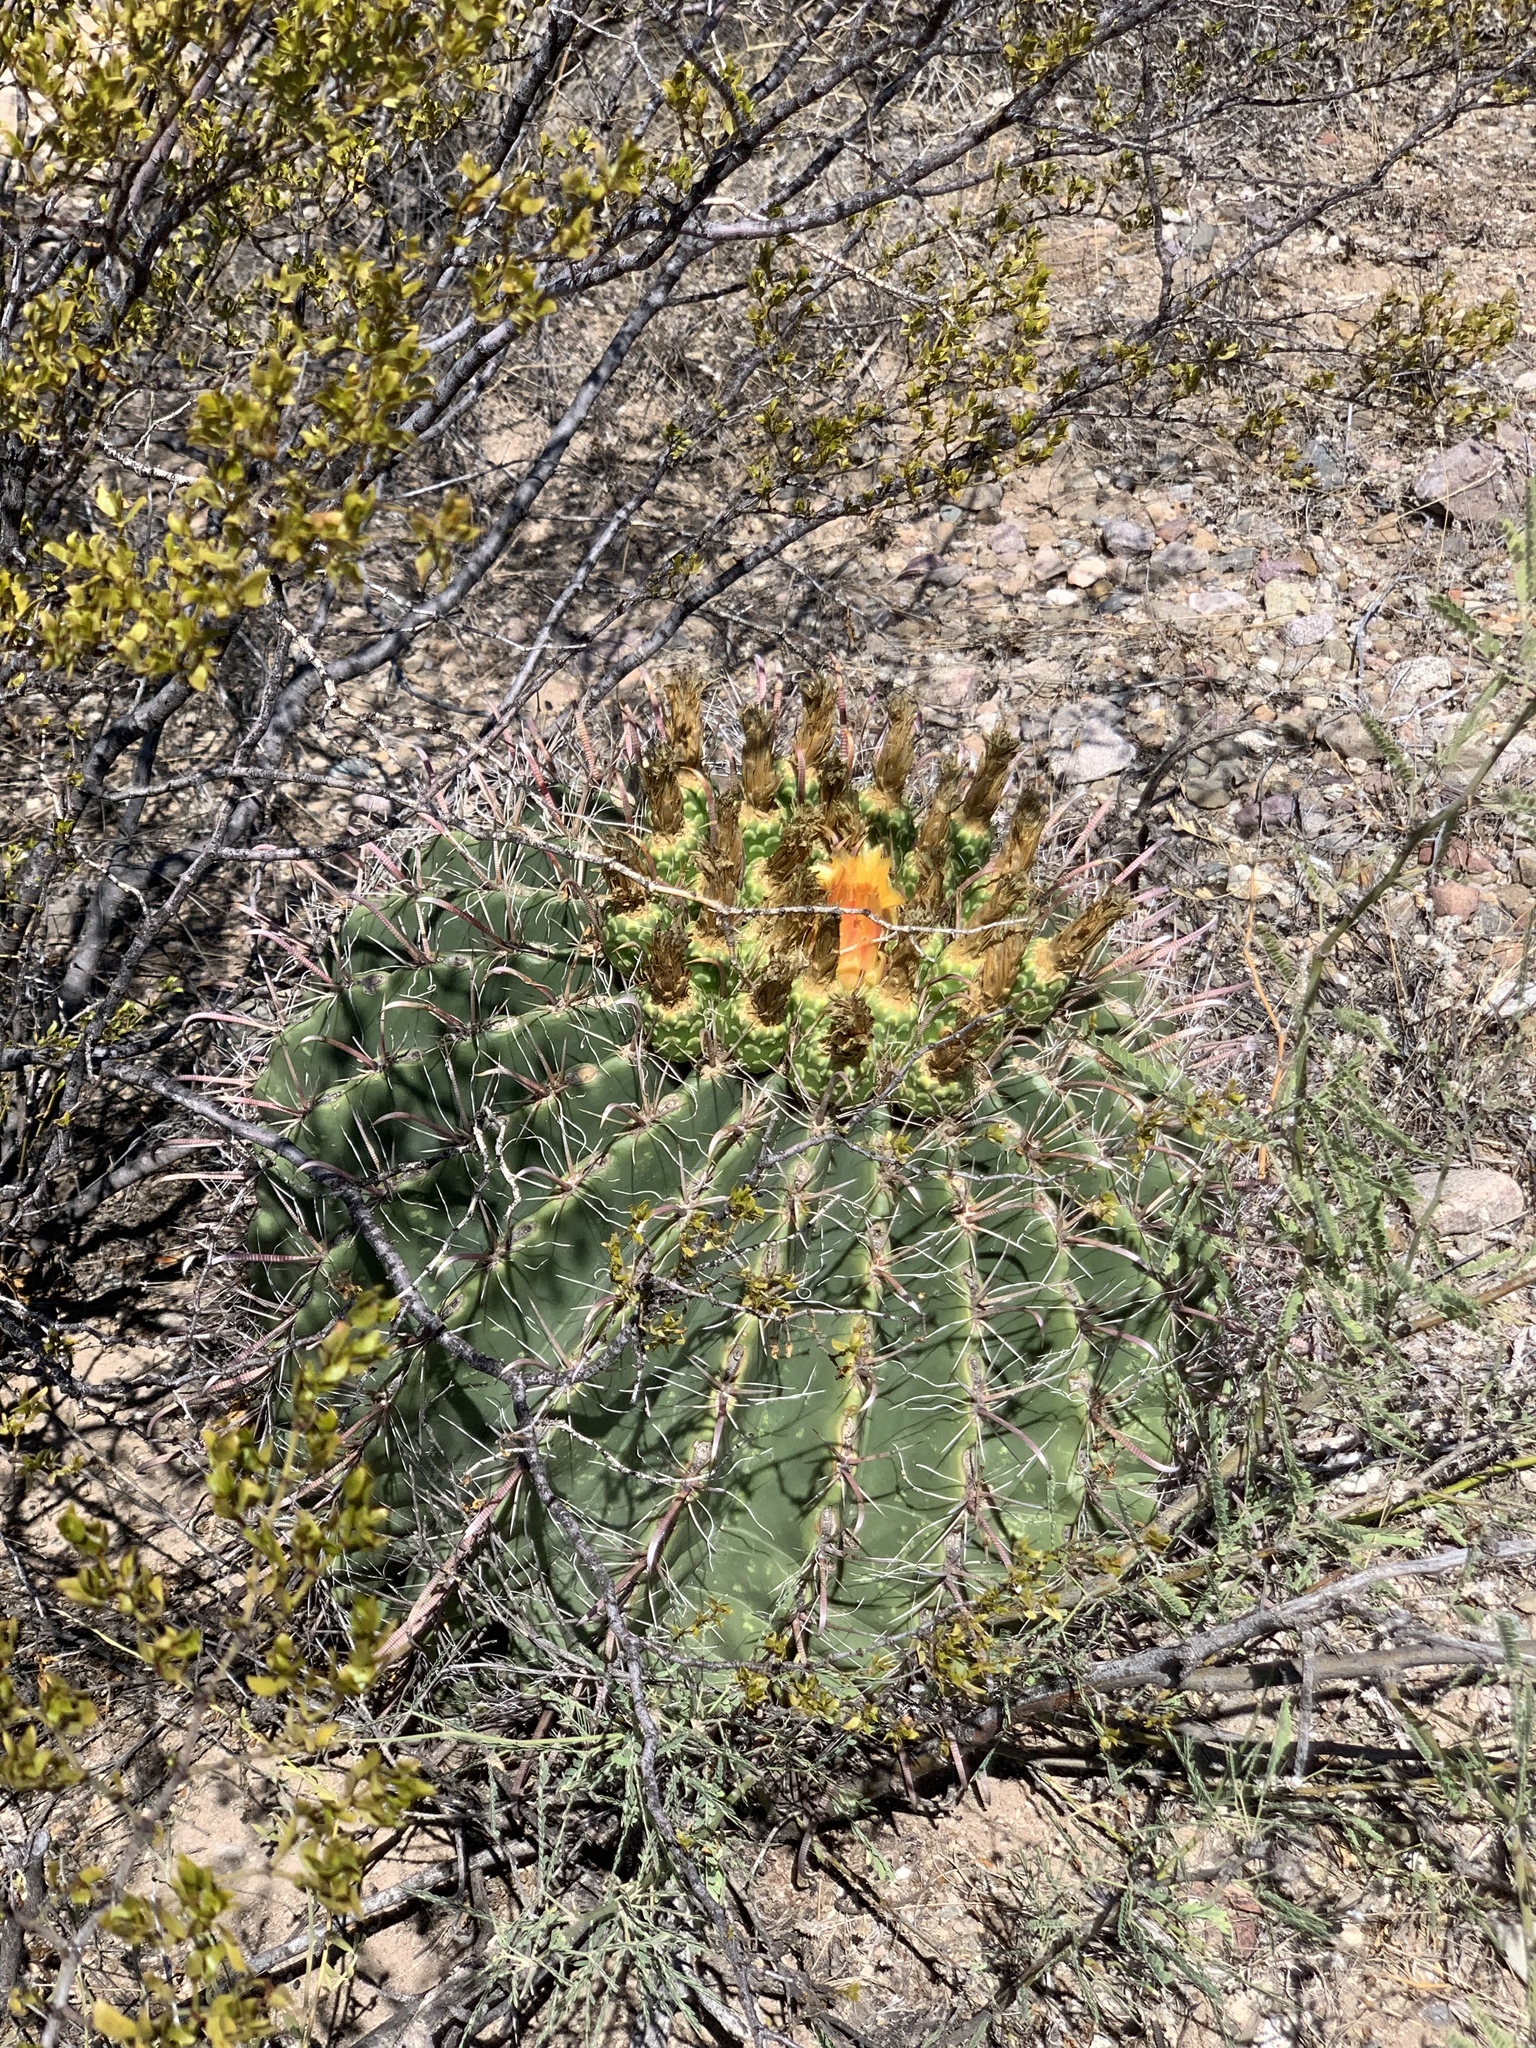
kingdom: Plantae
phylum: Tracheophyta
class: Magnoliopsida
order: Caryophyllales
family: Cactaceae
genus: Ferocactus
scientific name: Ferocactus wislizeni
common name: Candy barrel cactus
